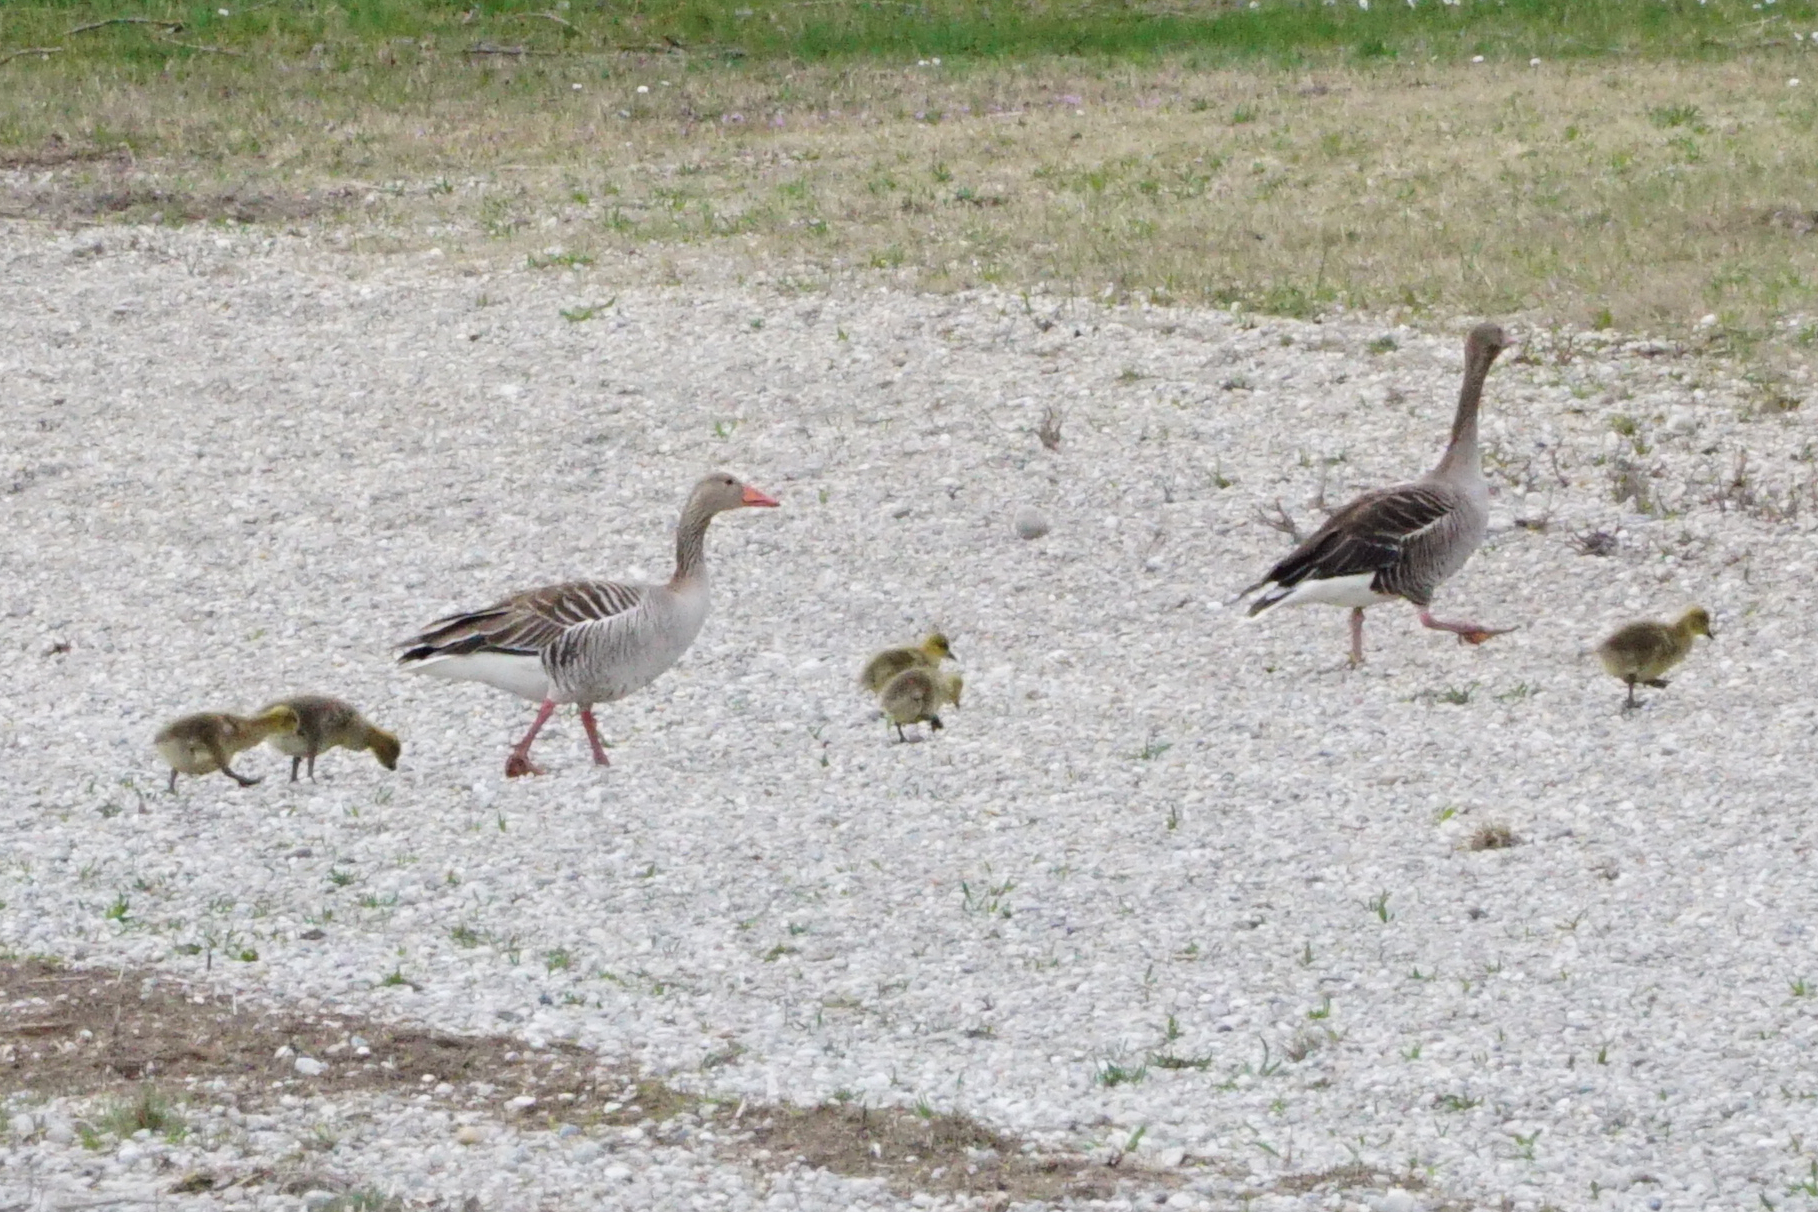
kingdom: Animalia
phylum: Chordata
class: Aves
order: Anseriformes
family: Anatidae
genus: Anser
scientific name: Anser anser
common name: Greylag goose
